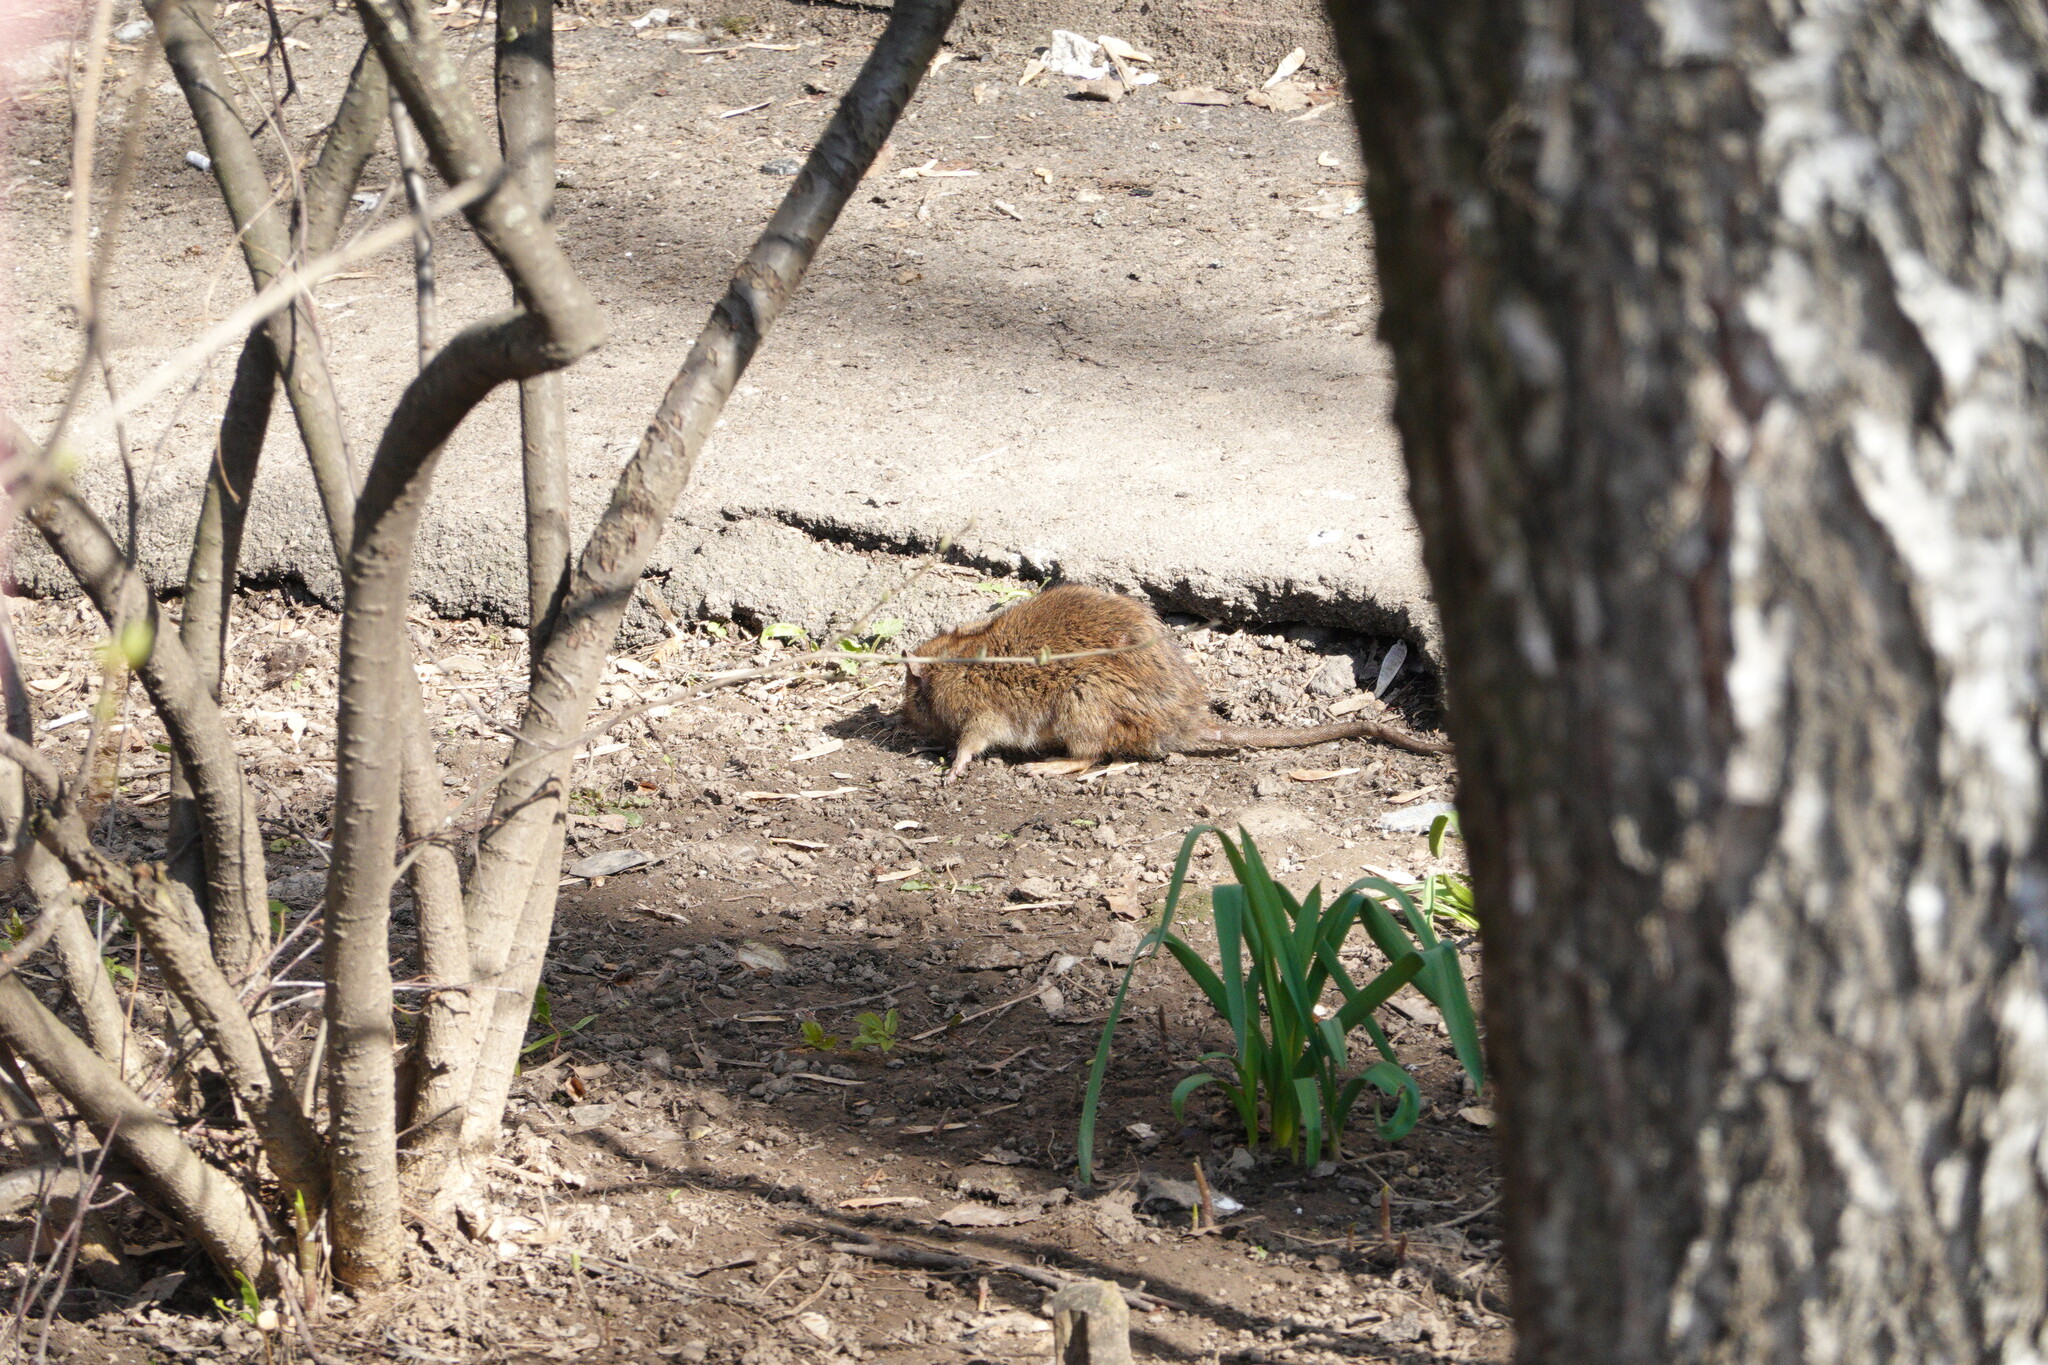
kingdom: Animalia
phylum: Chordata
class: Mammalia
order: Rodentia
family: Muridae
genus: Rattus
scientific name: Rattus norvegicus
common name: Brown rat
